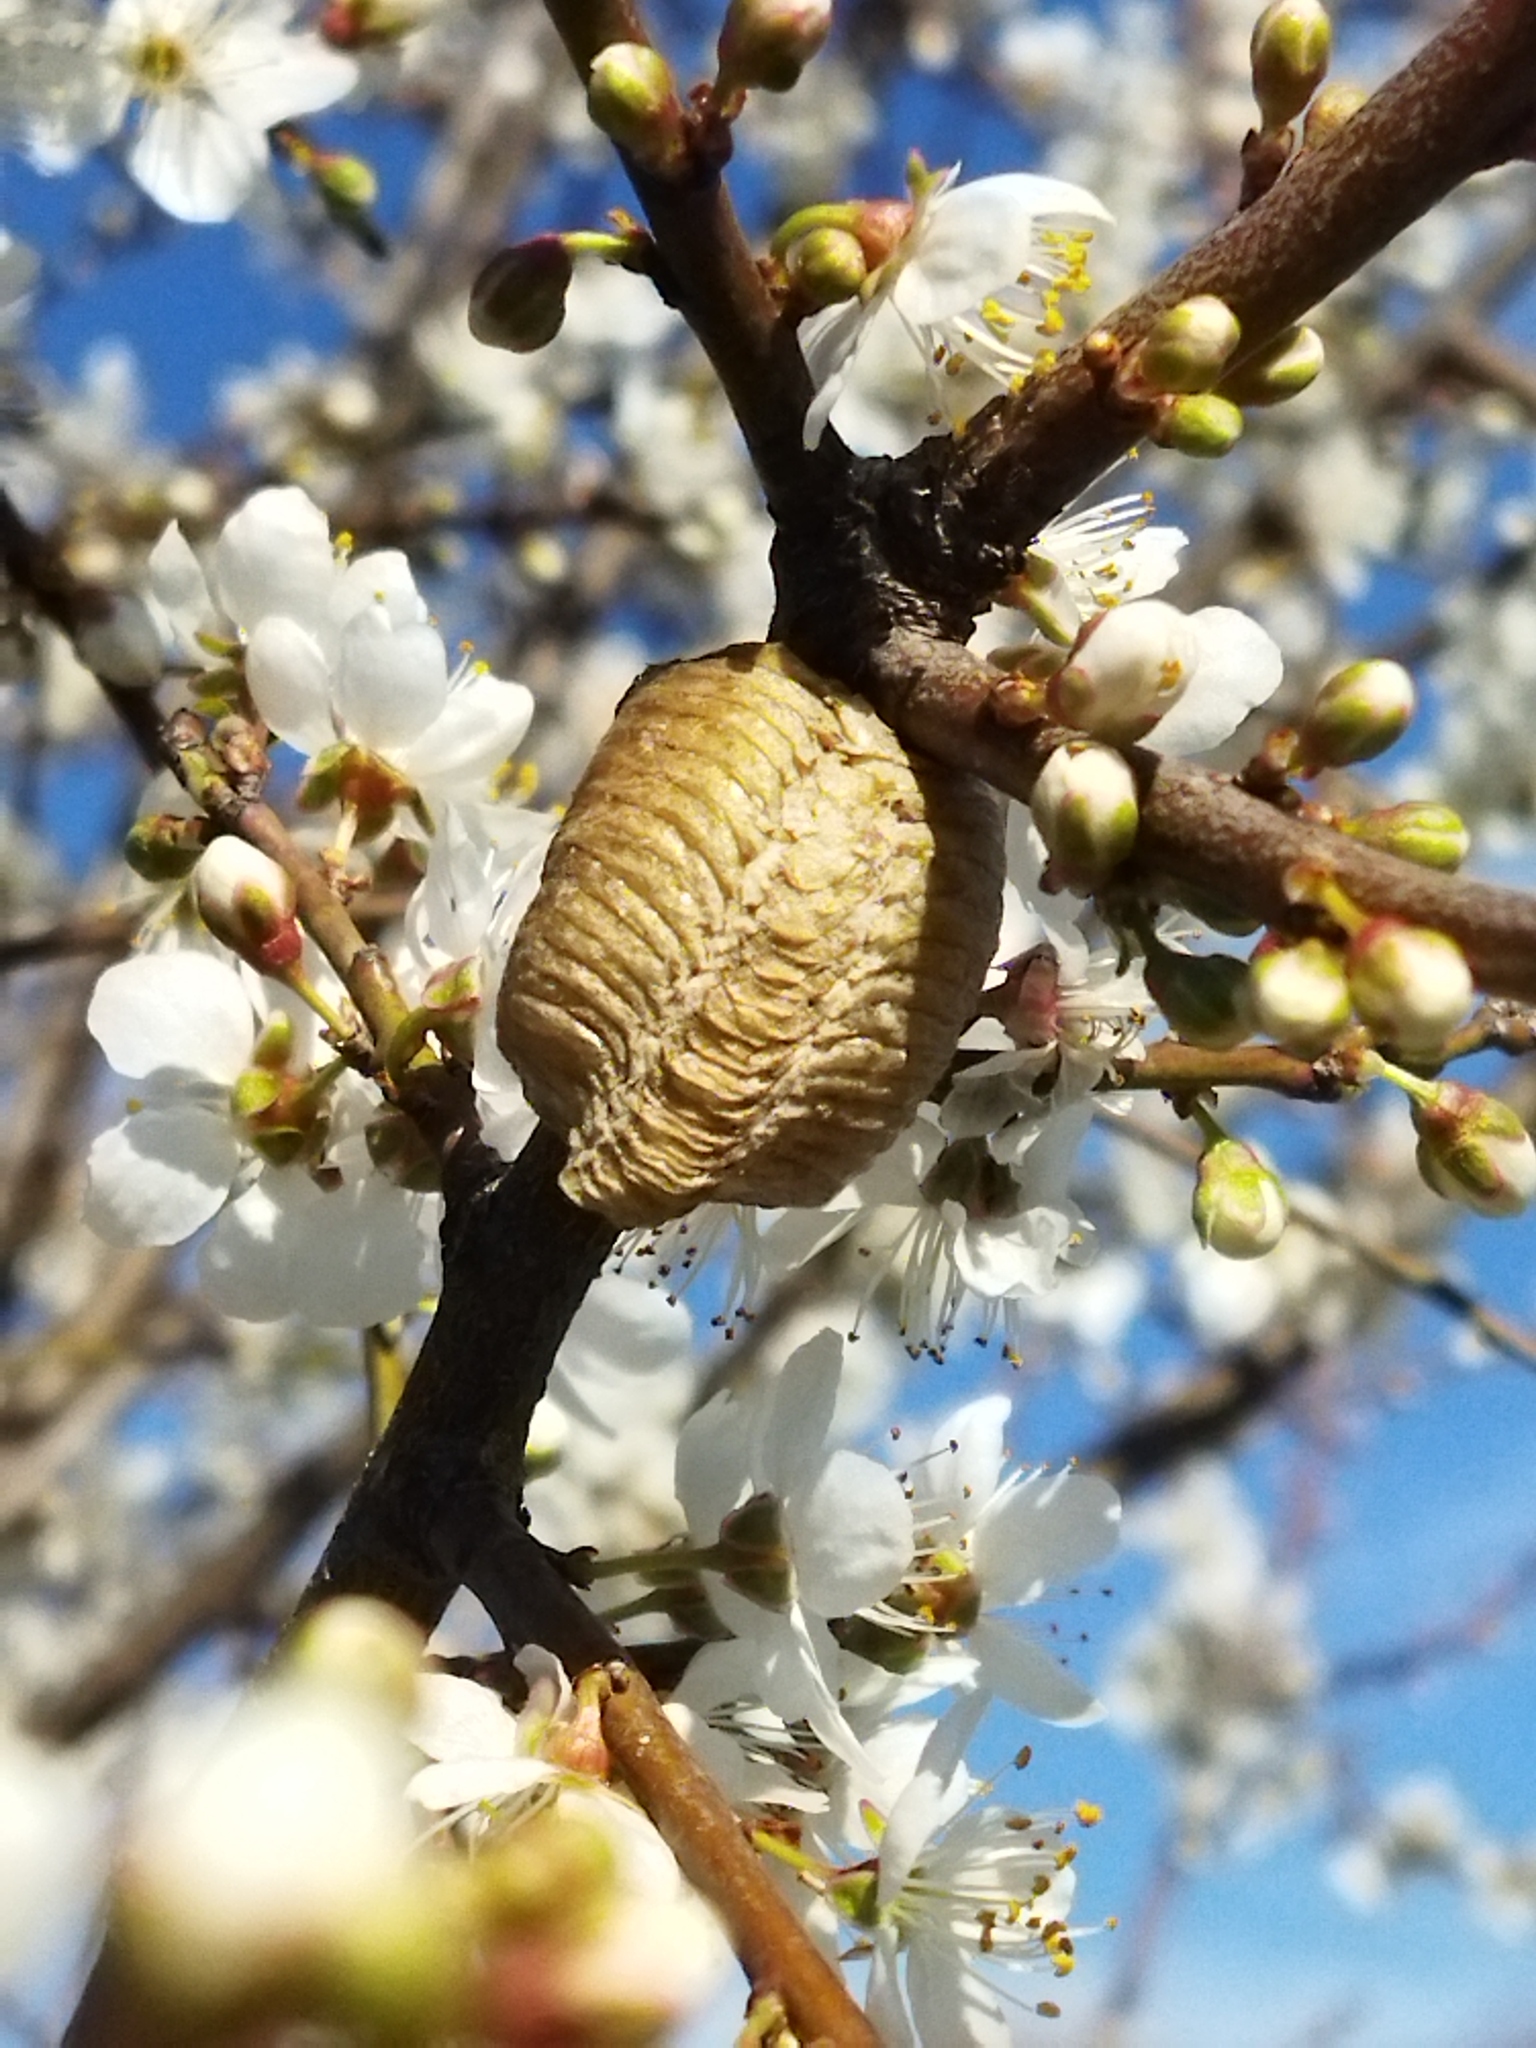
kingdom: Animalia
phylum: Arthropoda
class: Insecta
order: Mantodea
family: Mantidae
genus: Hierodula
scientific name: Hierodula transcaucasica
